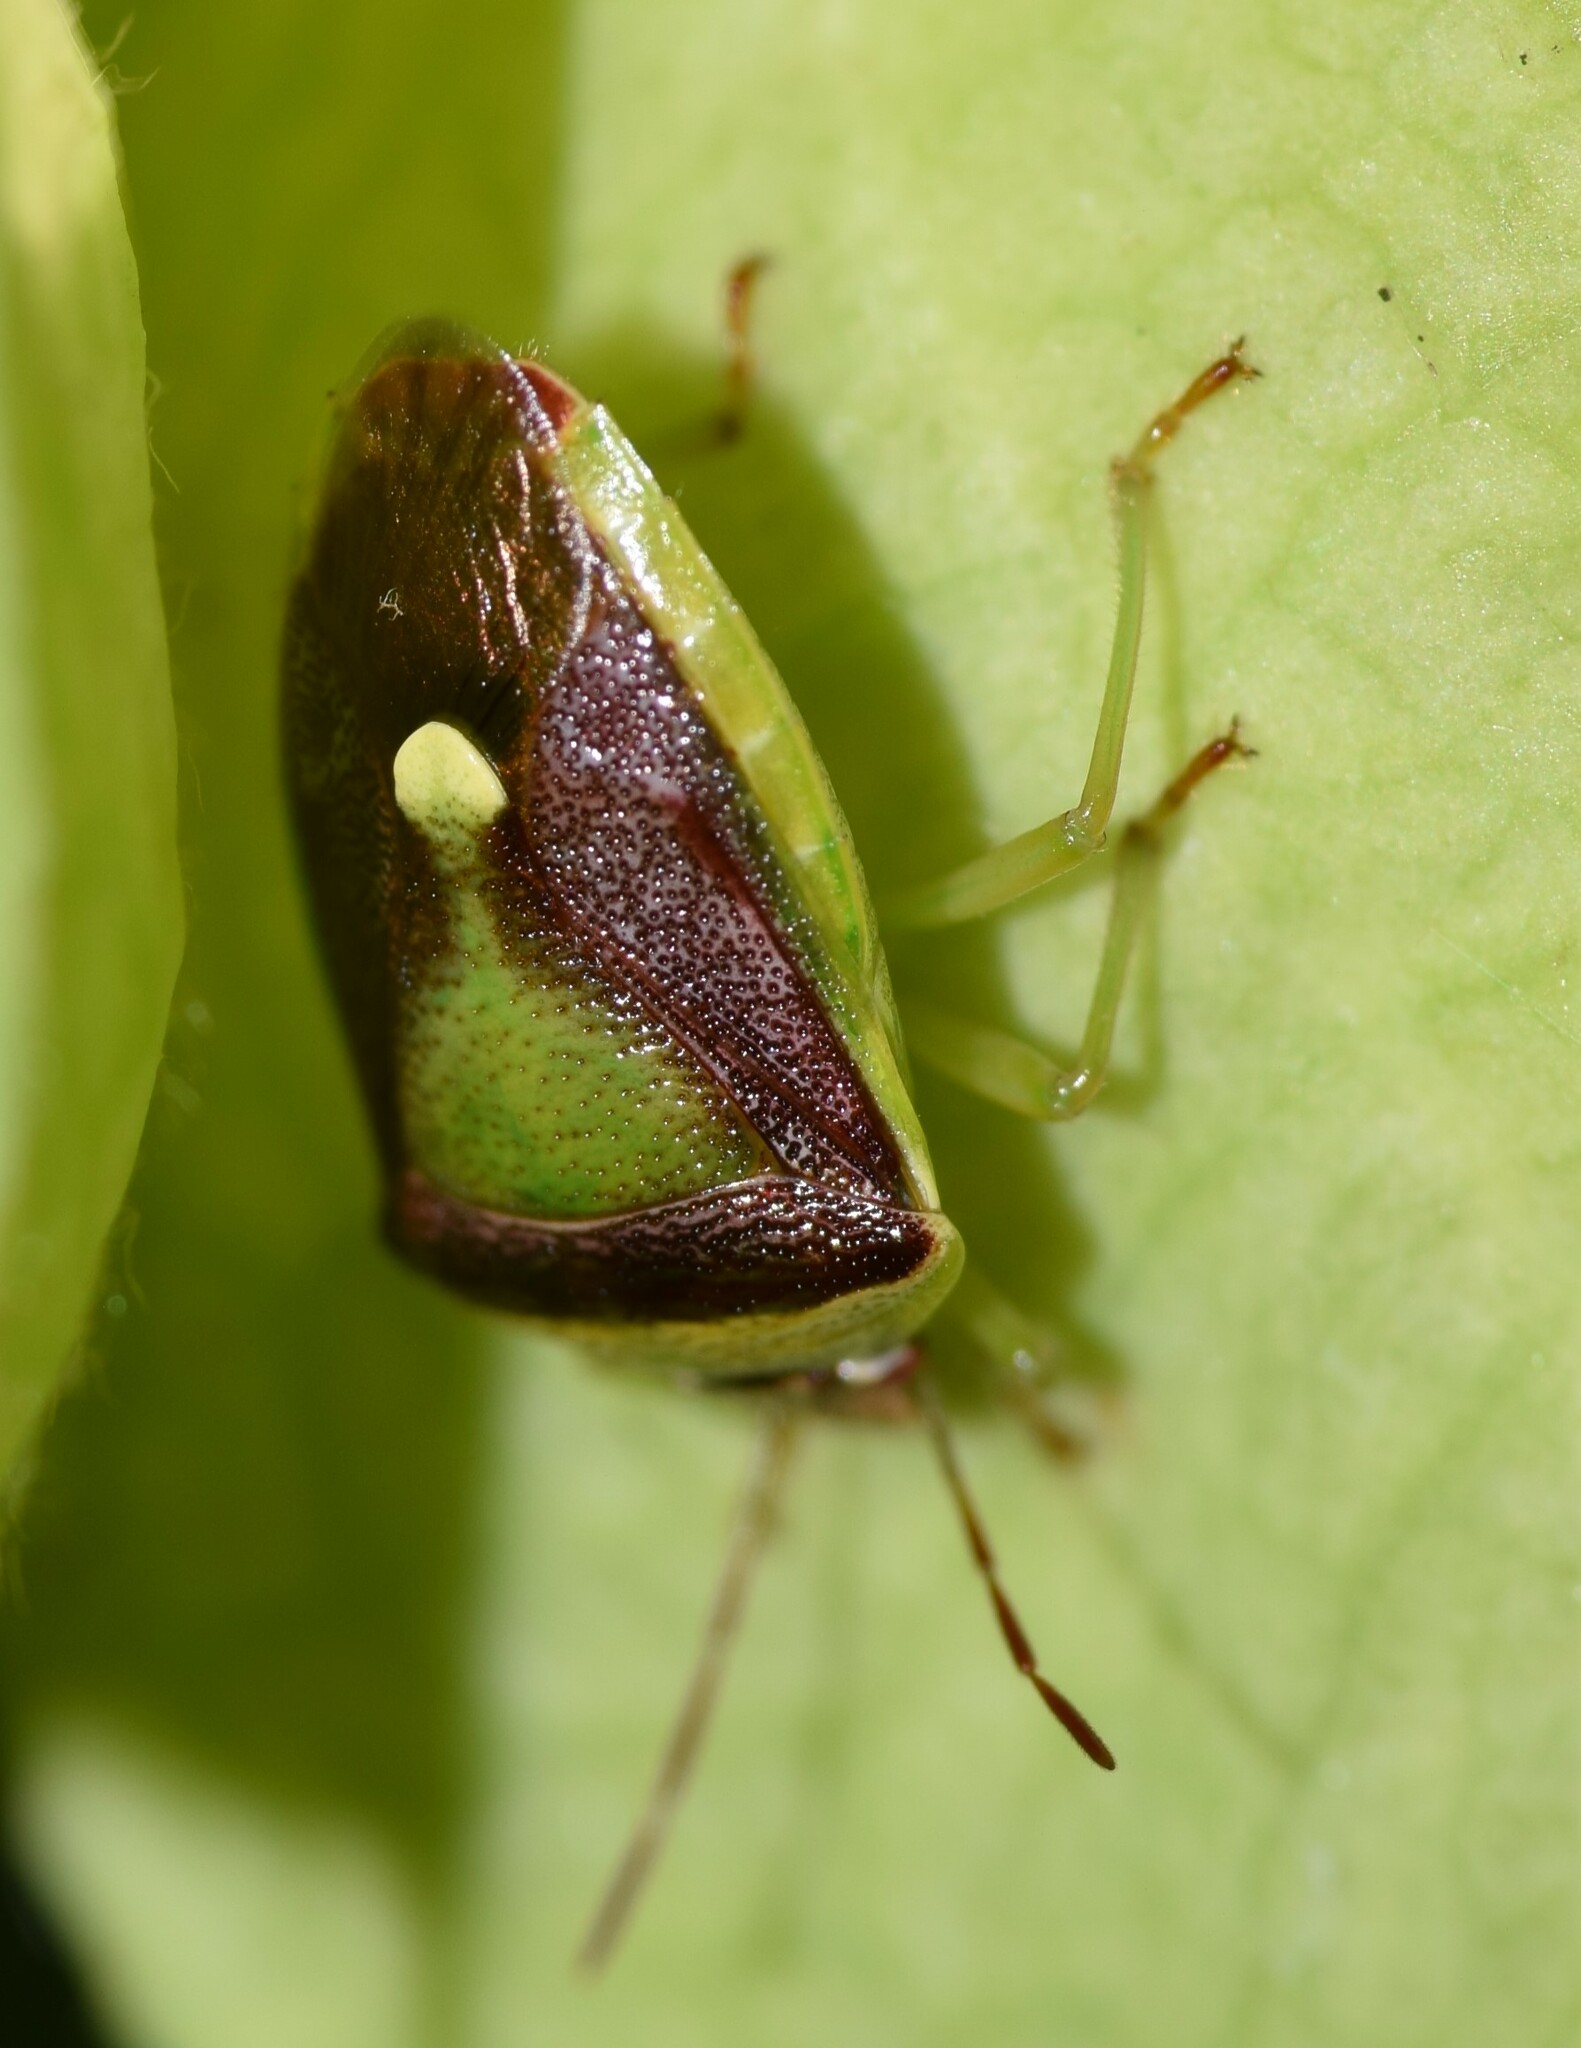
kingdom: Animalia
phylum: Arthropoda
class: Insecta
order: Hemiptera
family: Pentatomidae
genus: Banasa
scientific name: Banasa dimidiata
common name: Green burgundy stink bug
